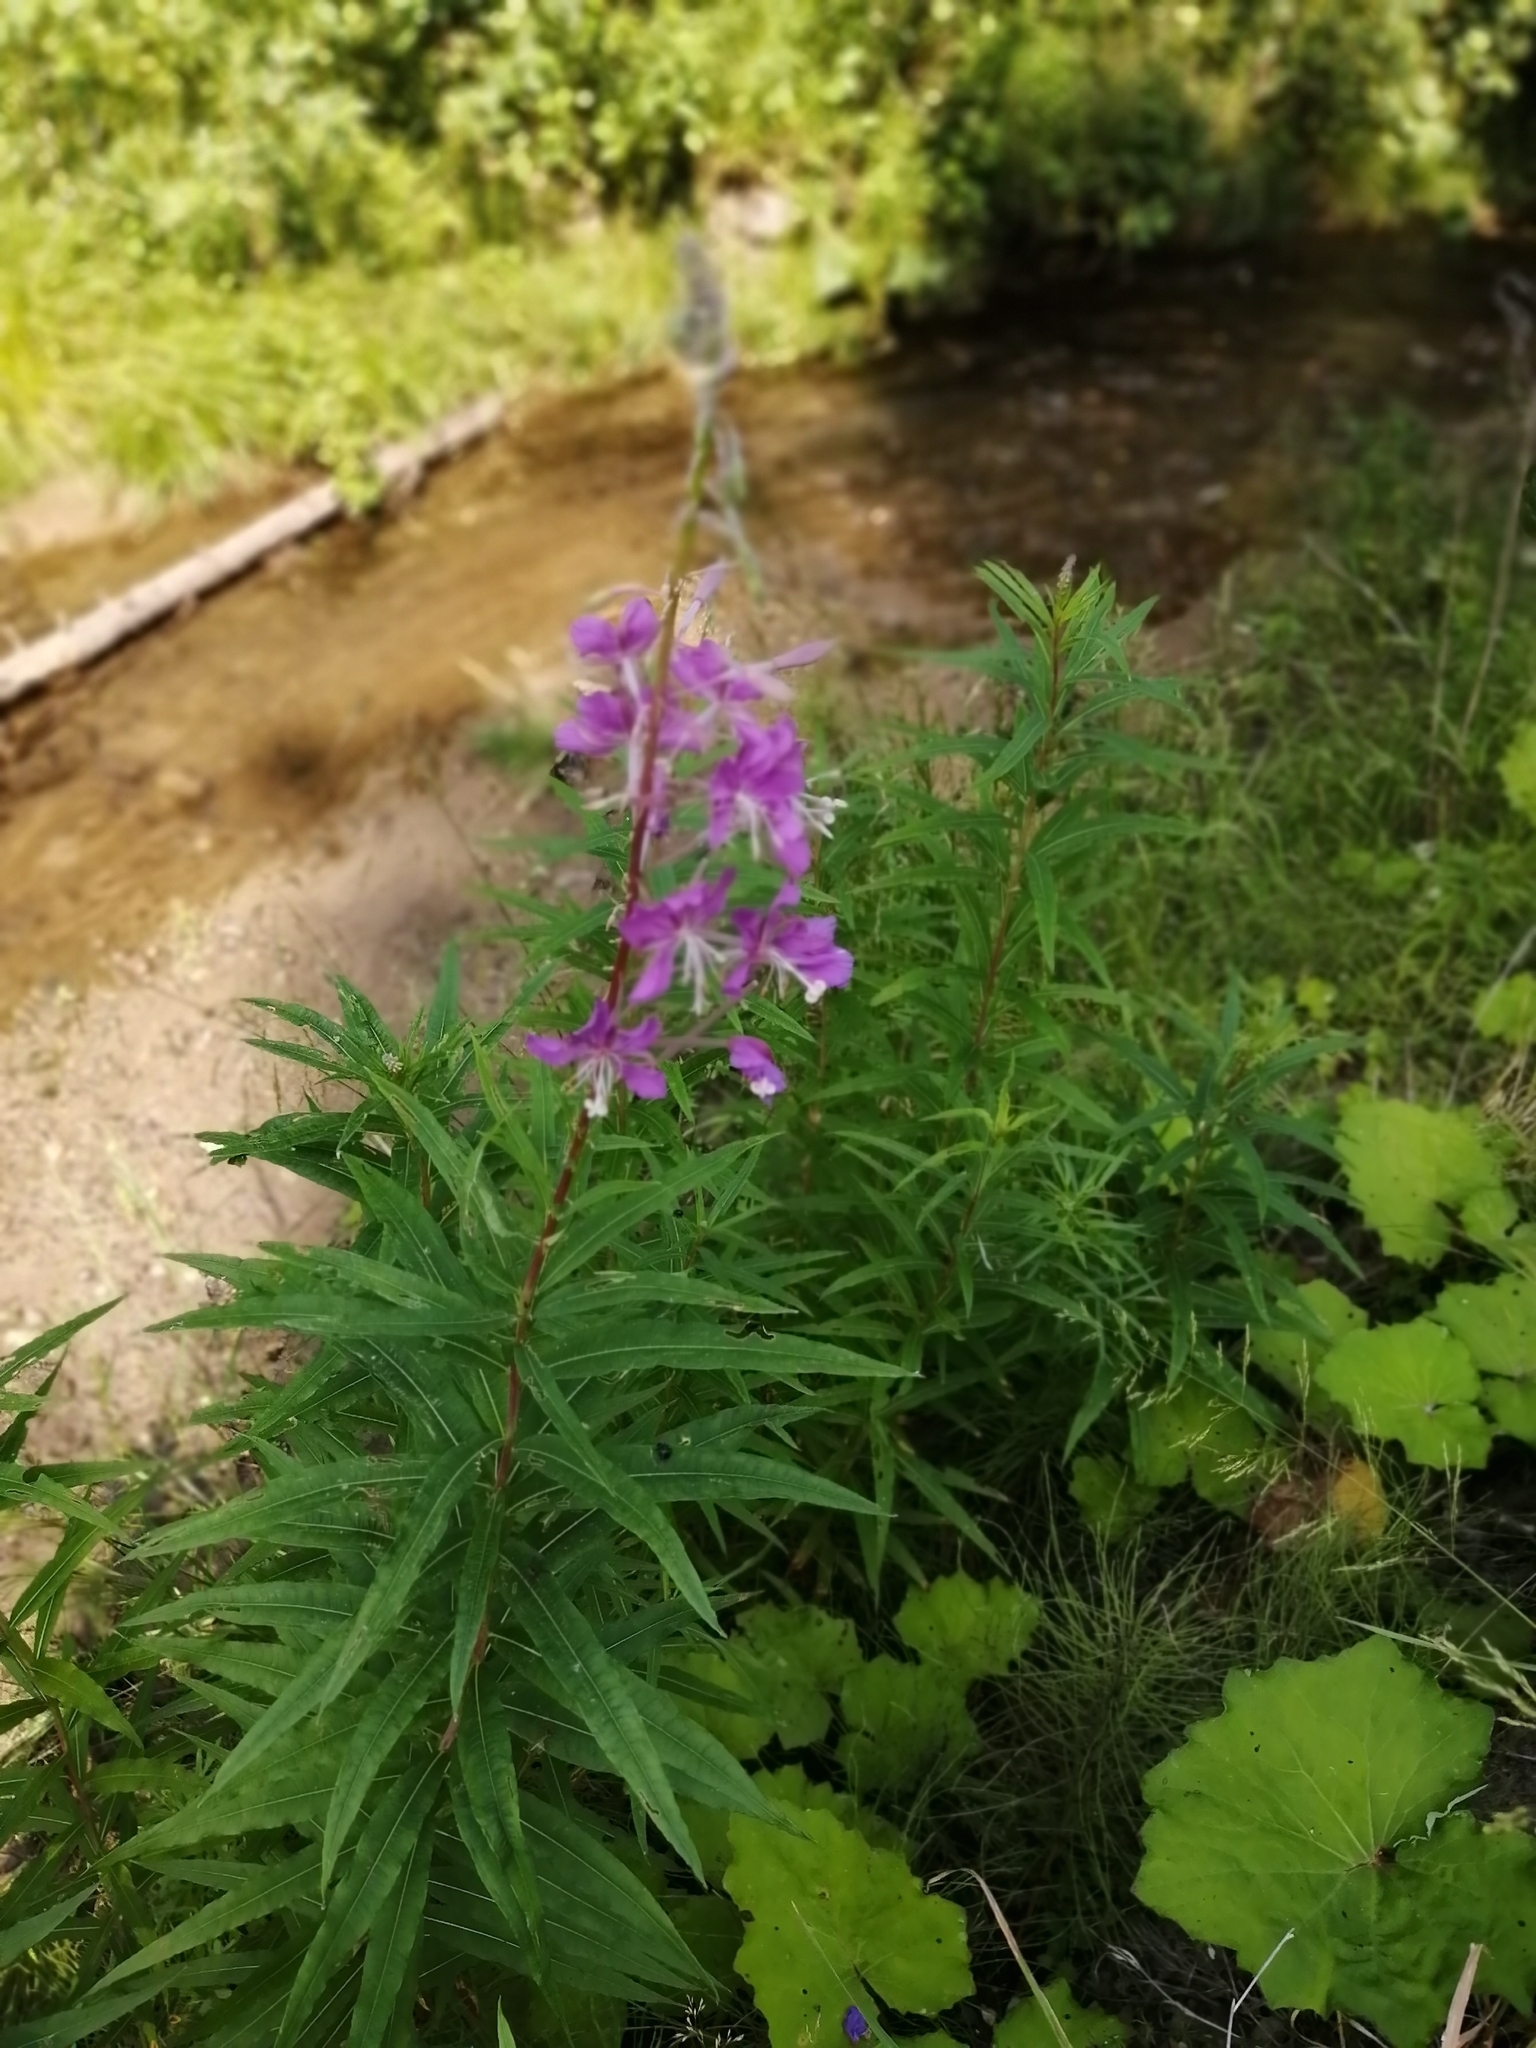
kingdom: Plantae
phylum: Tracheophyta
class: Magnoliopsida
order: Myrtales
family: Onagraceae
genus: Chamaenerion
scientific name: Chamaenerion angustifolium
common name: Fireweed
